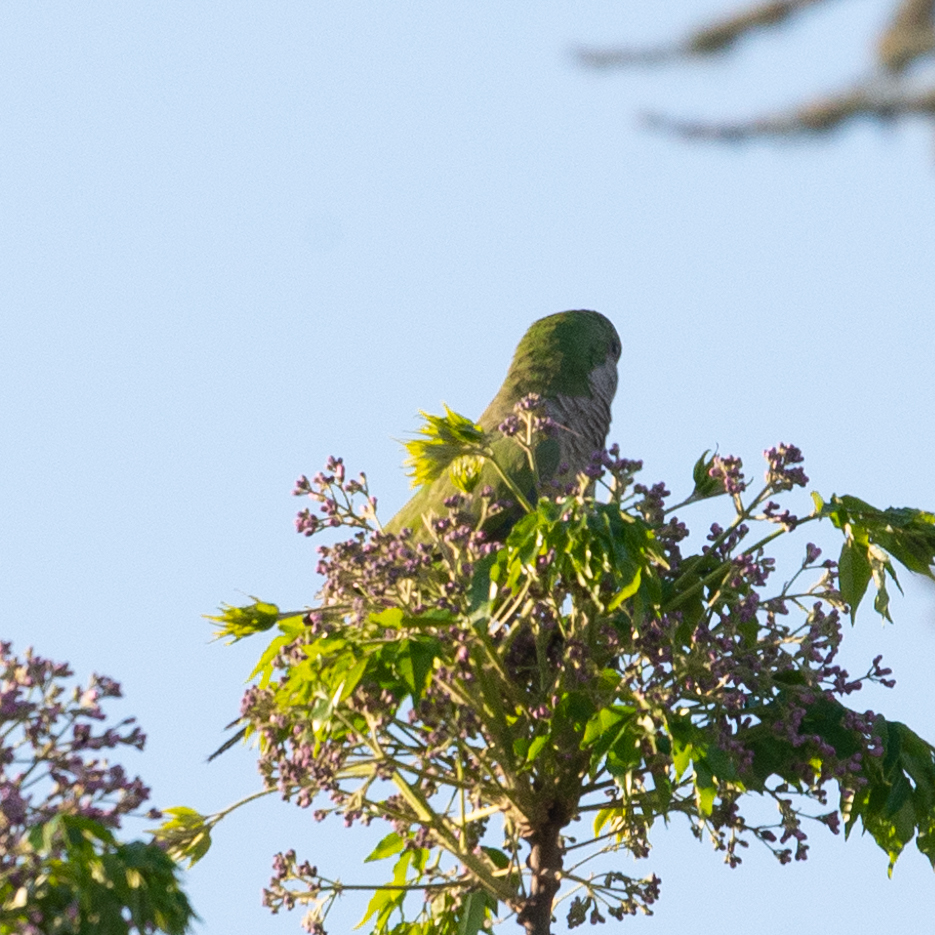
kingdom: Animalia
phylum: Chordata
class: Aves
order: Psittaciformes
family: Psittacidae
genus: Myiopsitta
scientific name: Myiopsitta monachus
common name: Monk parakeet
